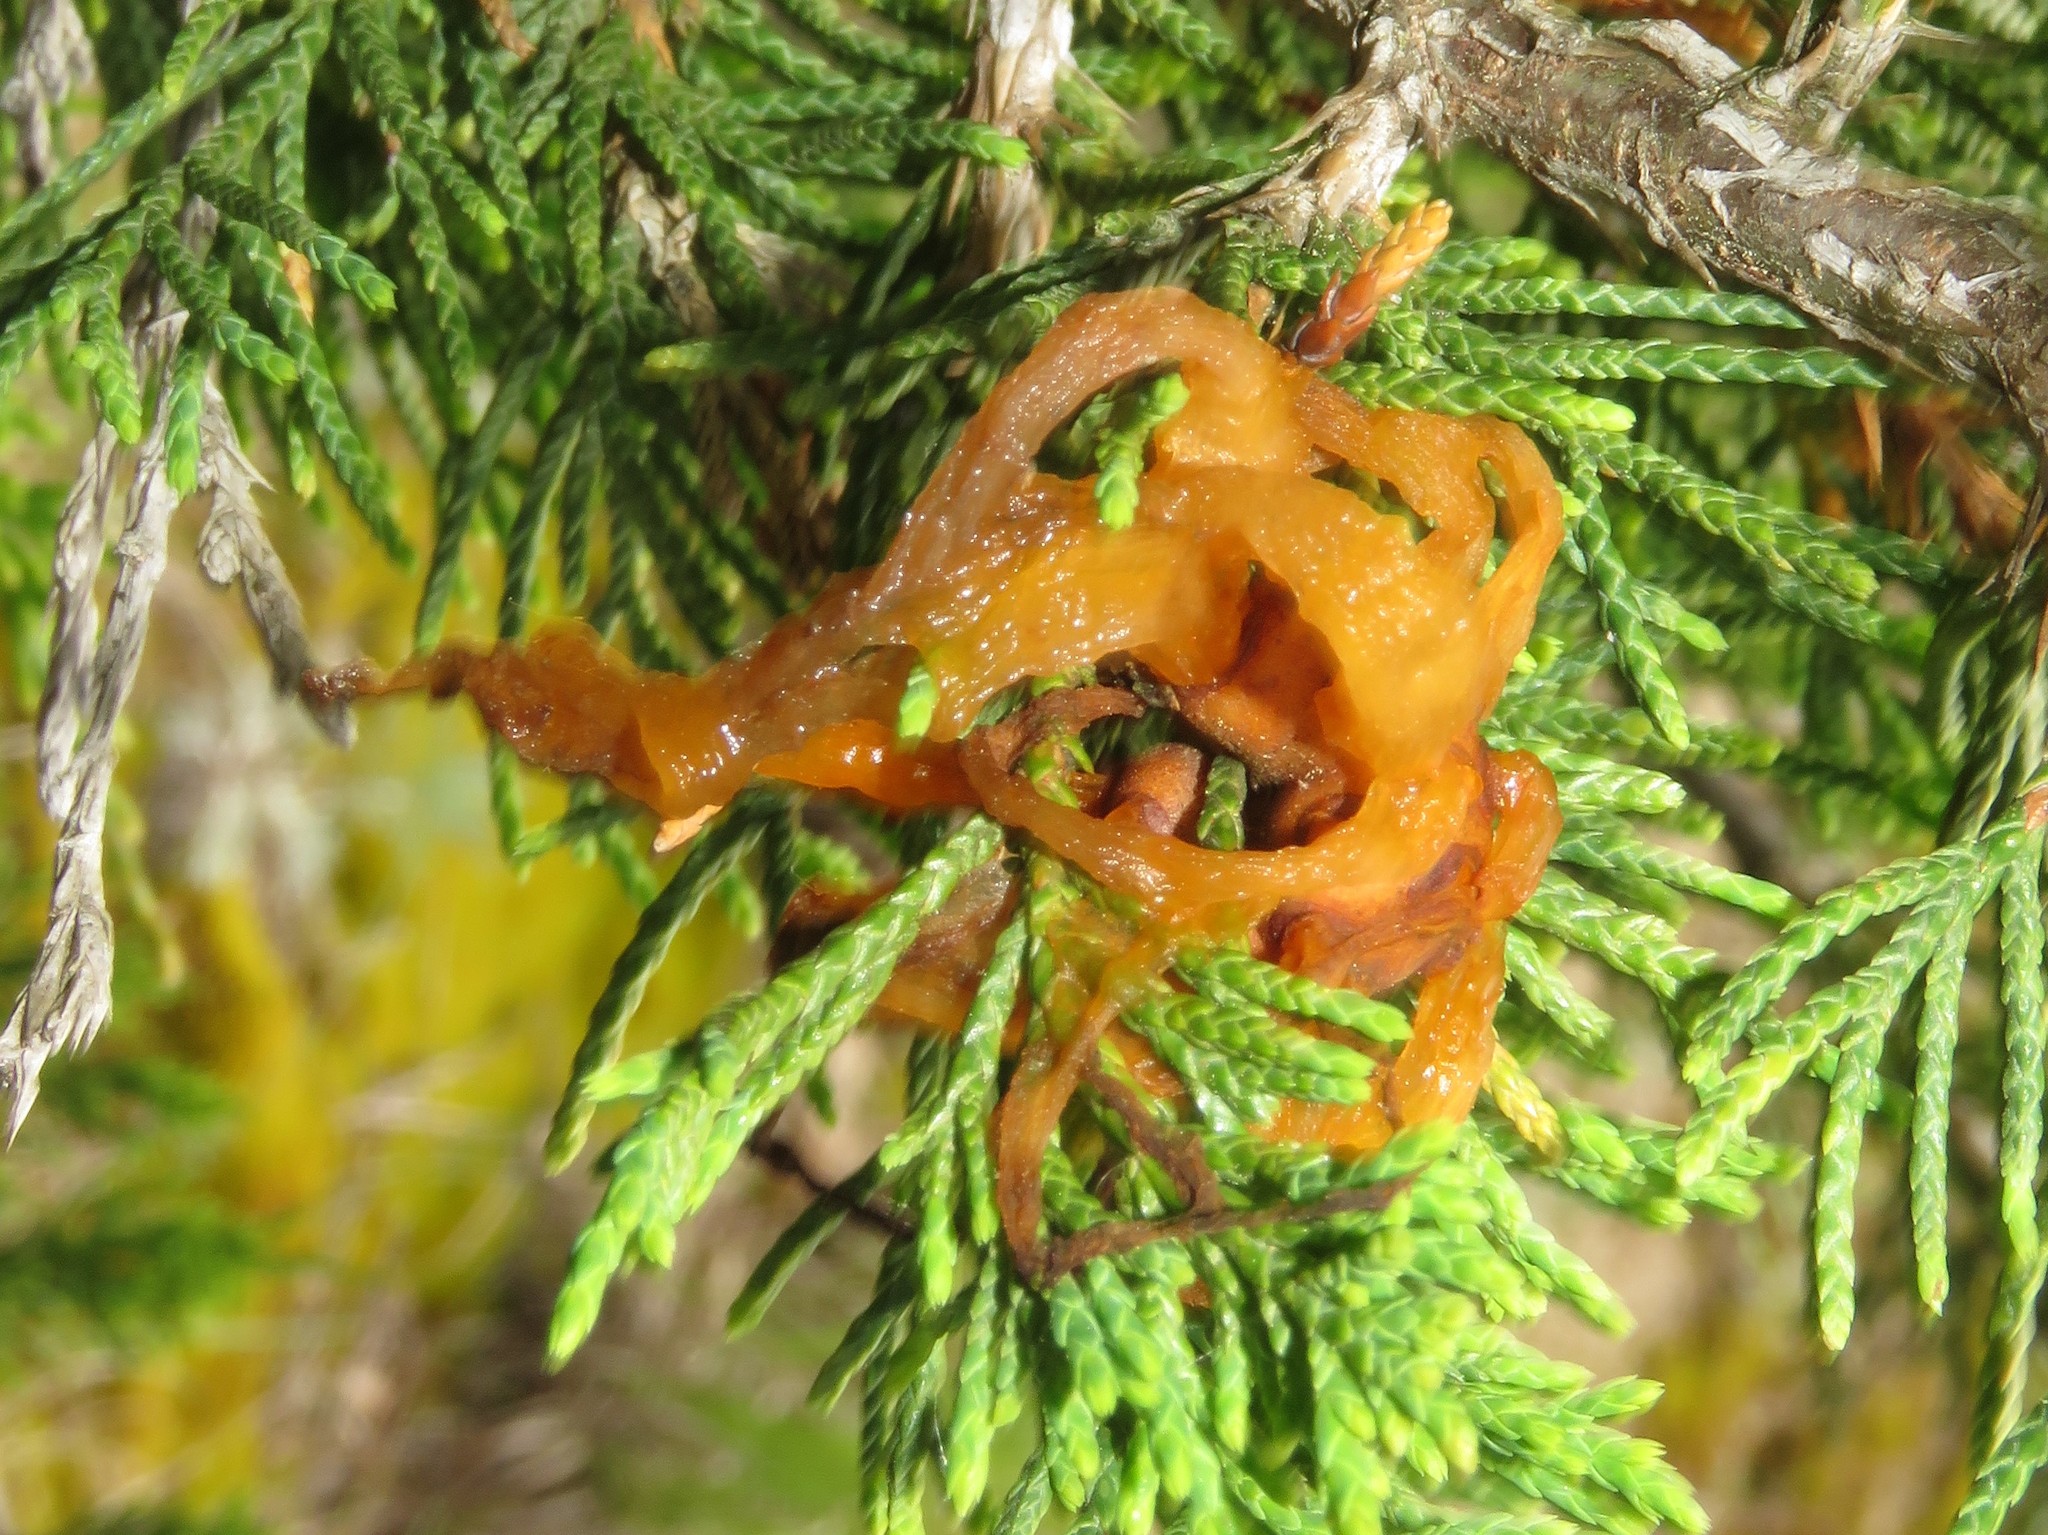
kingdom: Fungi
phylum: Basidiomycota
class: Pucciniomycetes
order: Pucciniales
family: Gymnosporangiaceae
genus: Gymnosporangium
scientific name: Gymnosporangium juniperi-virginianae
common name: Juniper-apple rust
